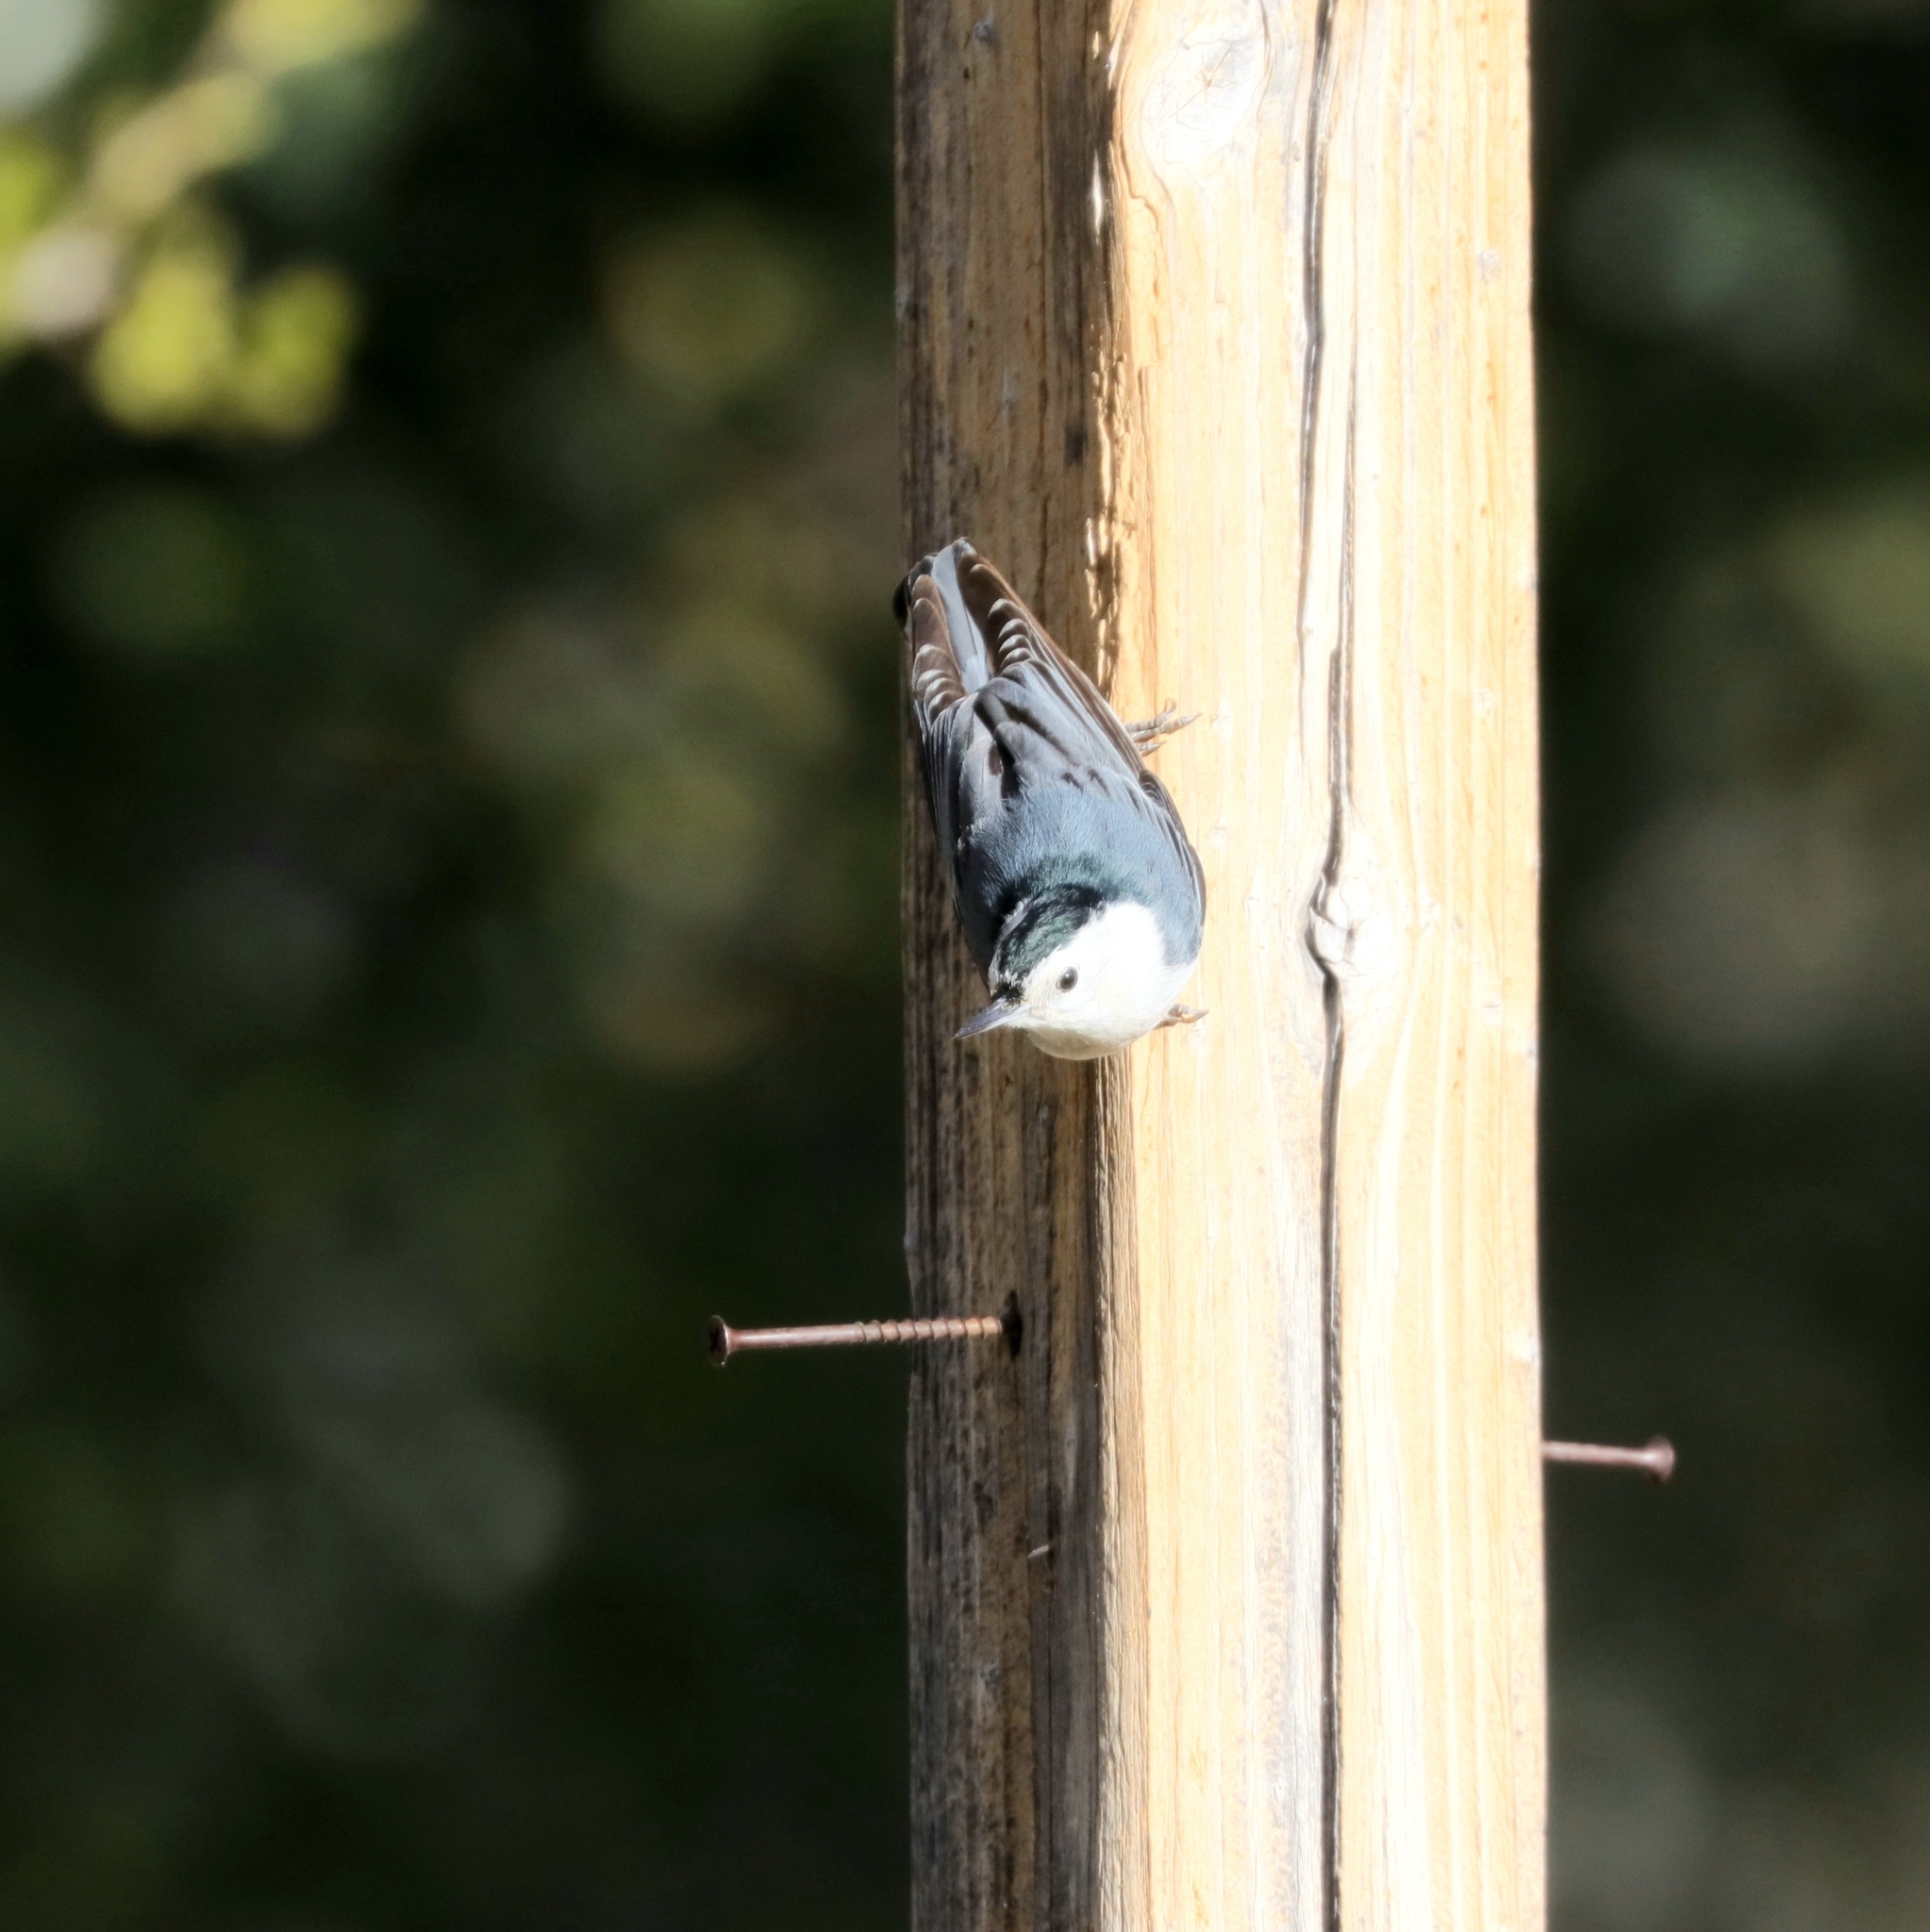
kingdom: Animalia
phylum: Chordata
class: Aves
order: Passeriformes
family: Sittidae
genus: Sitta
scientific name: Sitta carolinensis
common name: White-breasted nuthatch
